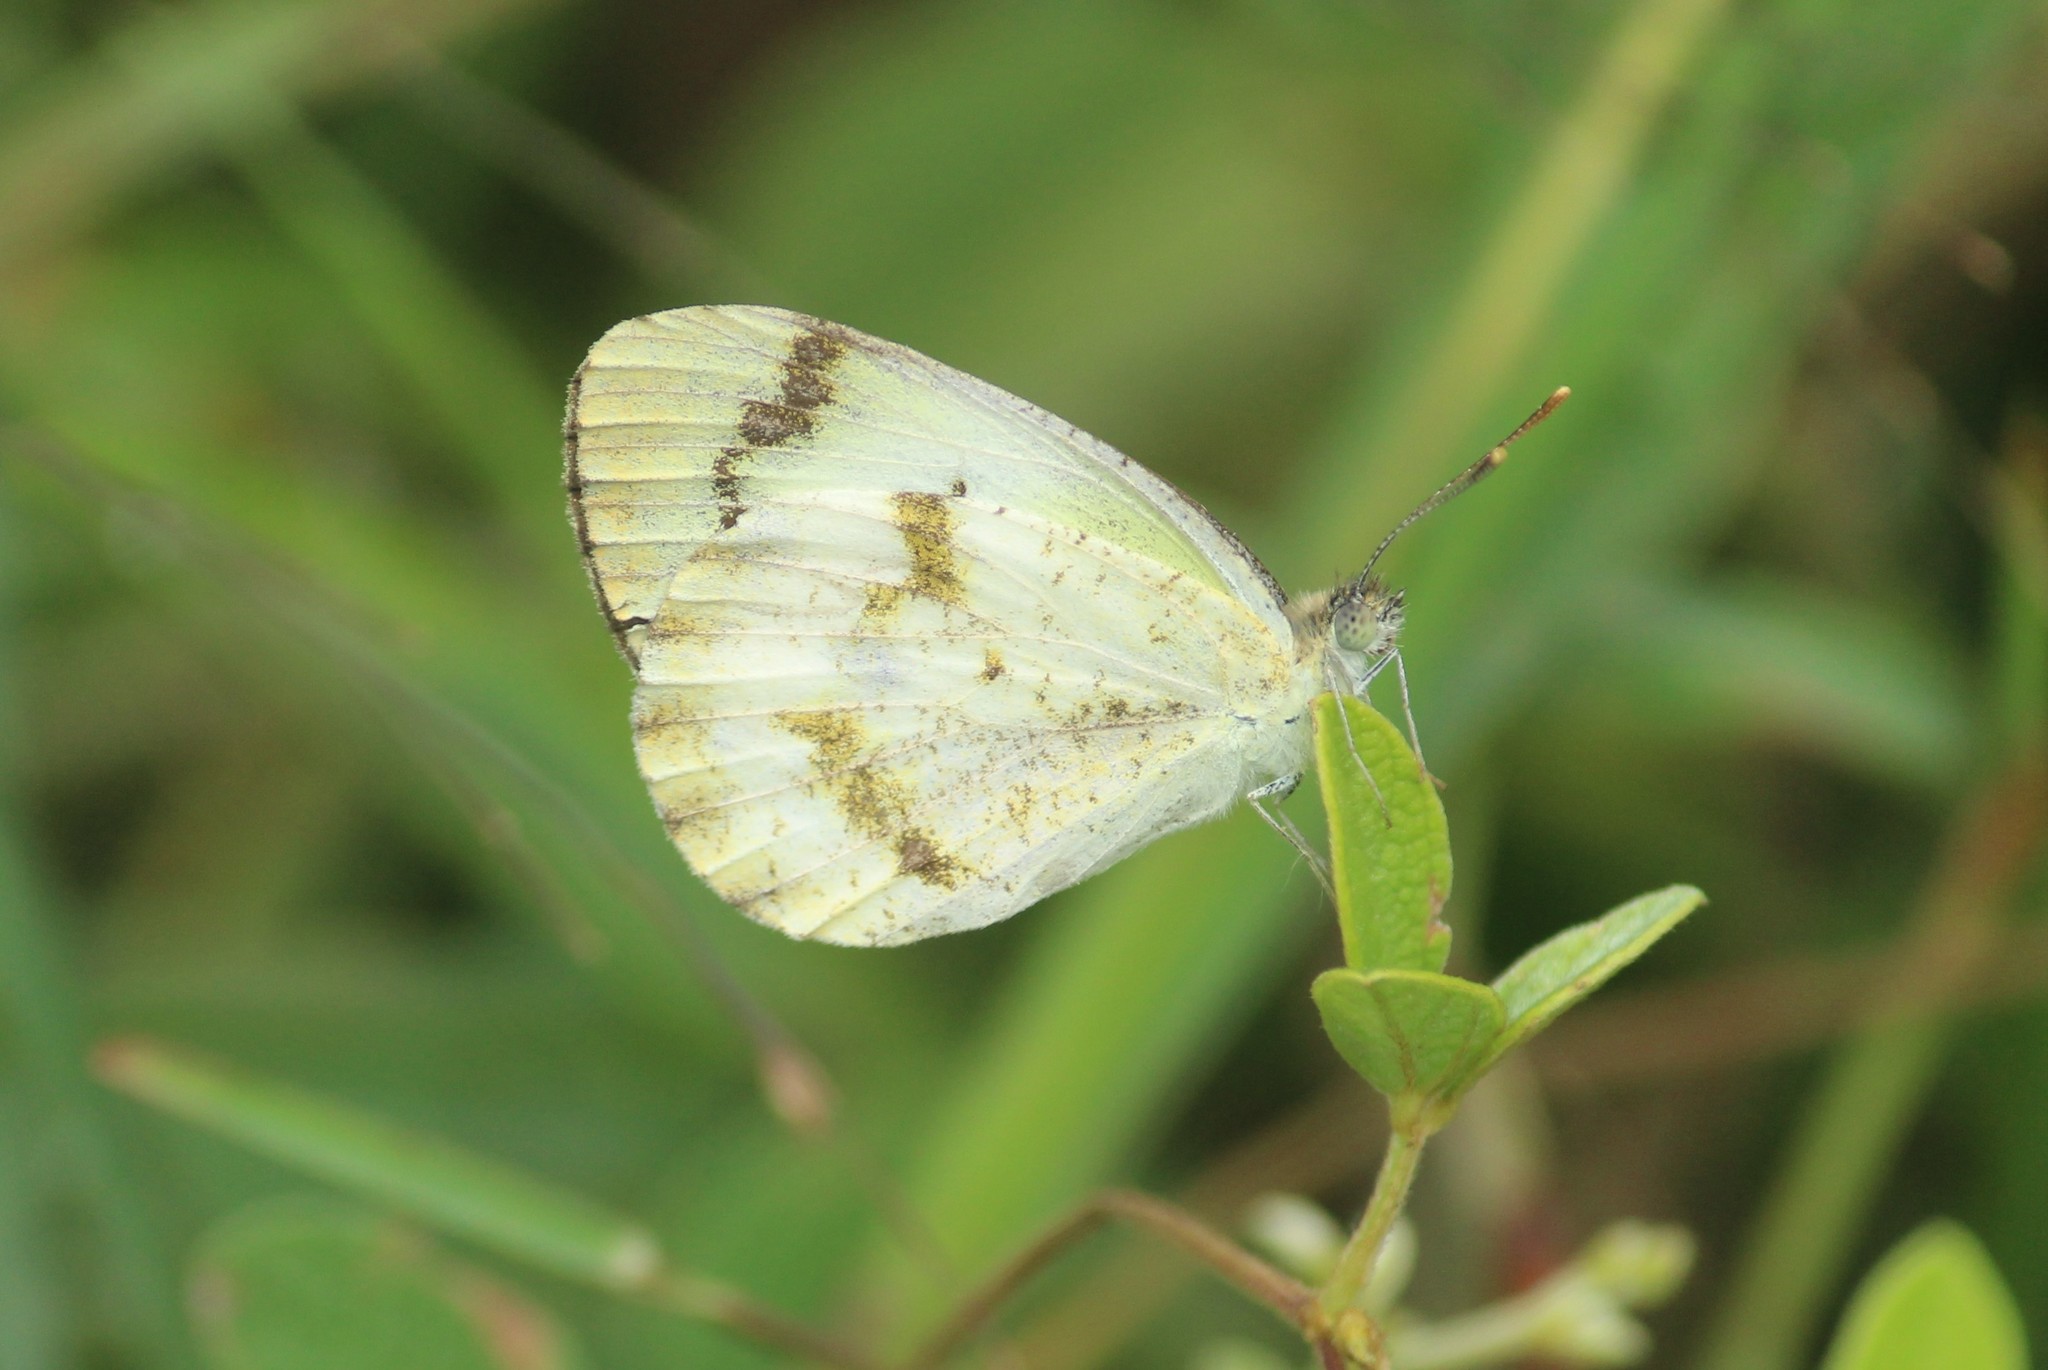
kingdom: Animalia
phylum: Arthropoda
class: Insecta
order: Lepidoptera
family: Pieridae
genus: Colotis
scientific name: Colotis aurora
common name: Plain orange-tip
